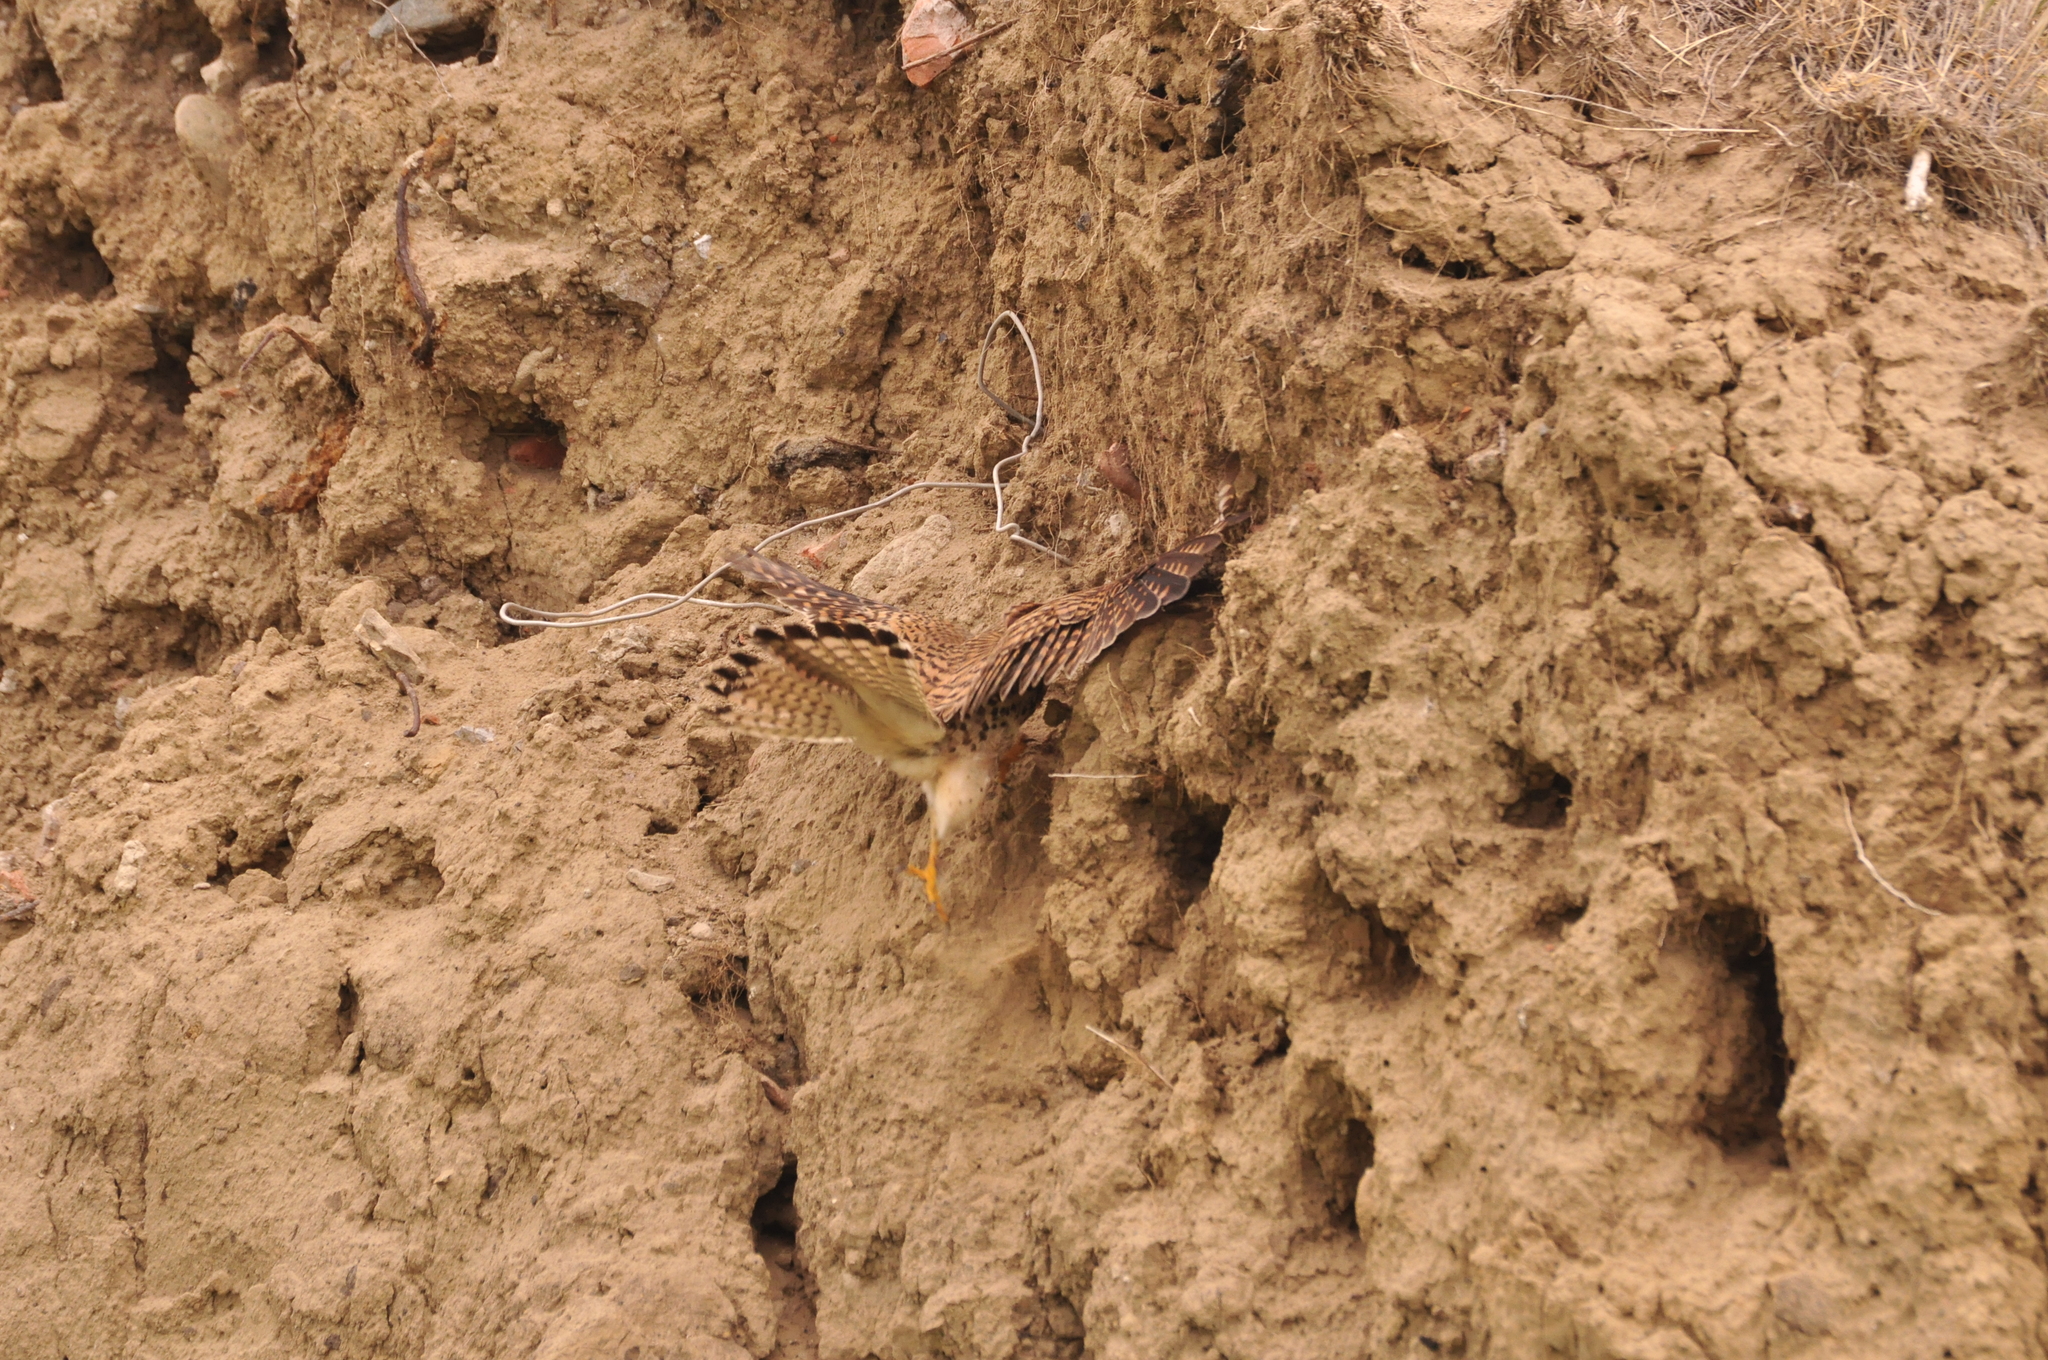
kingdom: Animalia
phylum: Chordata
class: Aves
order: Falconiformes
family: Falconidae
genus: Falco
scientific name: Falco tinnunculus
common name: Common kestrel
